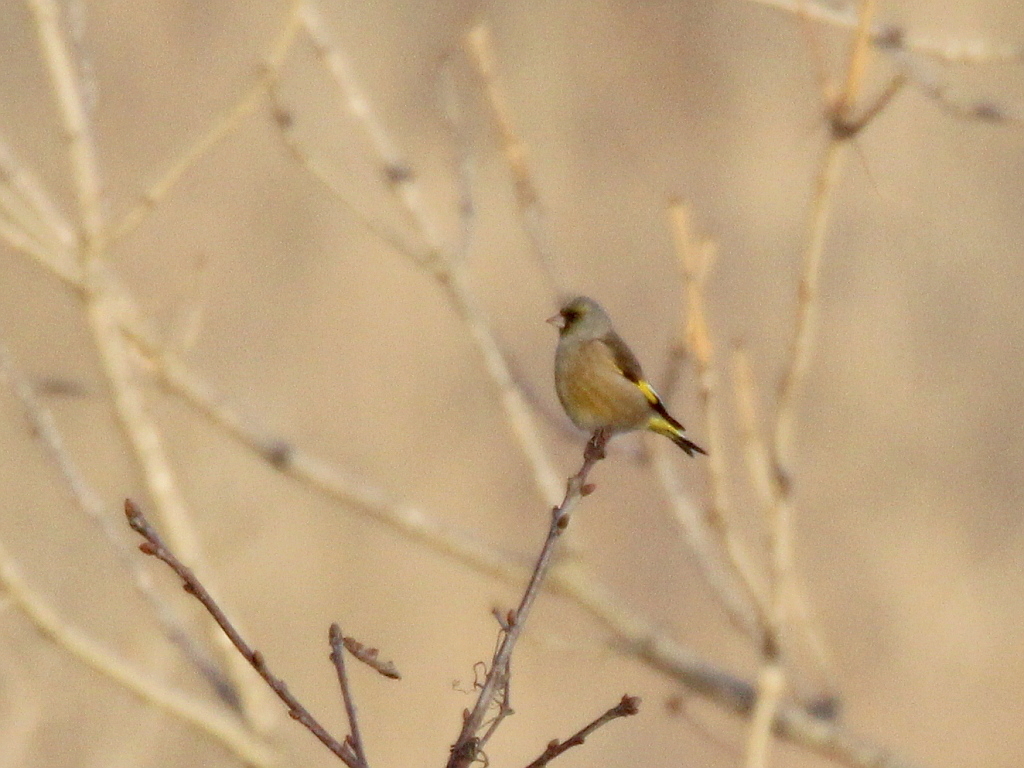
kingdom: Plantae
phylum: Tracheophyta
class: Liliopsida
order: Poales
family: Poaceae
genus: Chloris
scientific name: Chloris sinica
